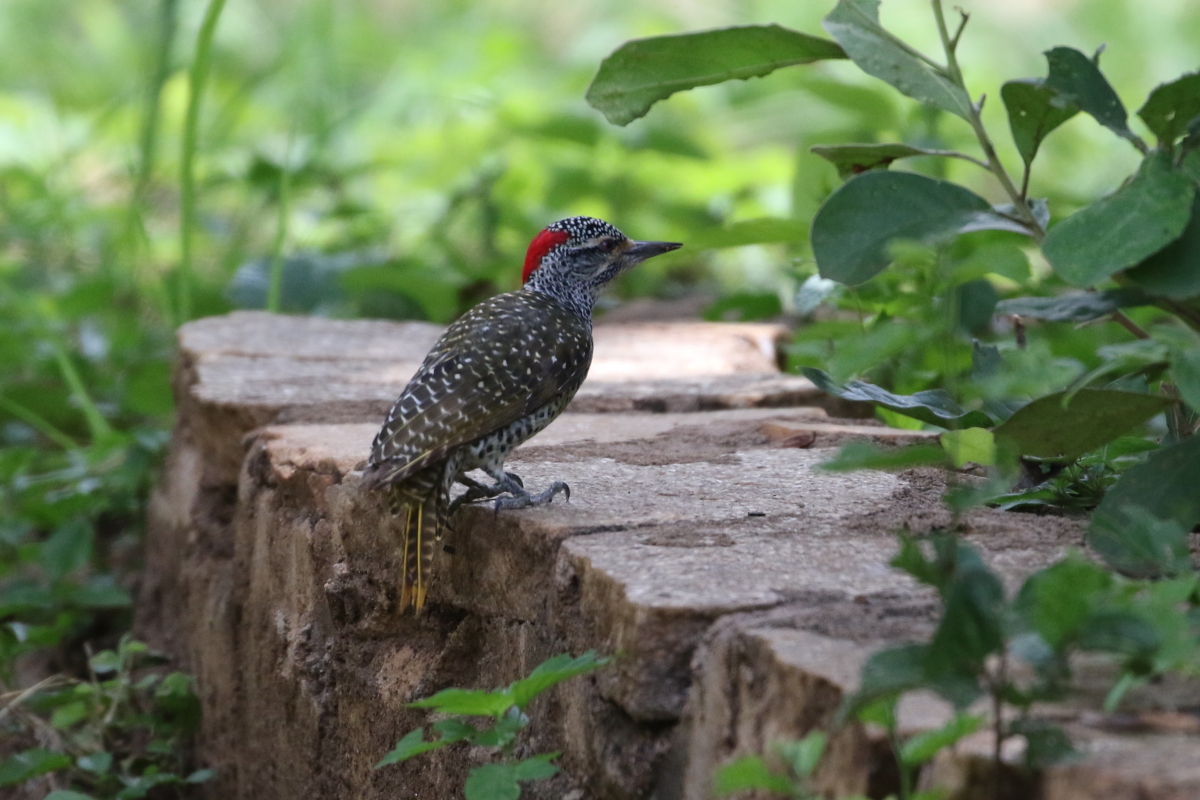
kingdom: Animalia
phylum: Chordata
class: Aves
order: Piciformes
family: Picidae
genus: Campethera
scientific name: Campethera nubica
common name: Nubian woodpecker
